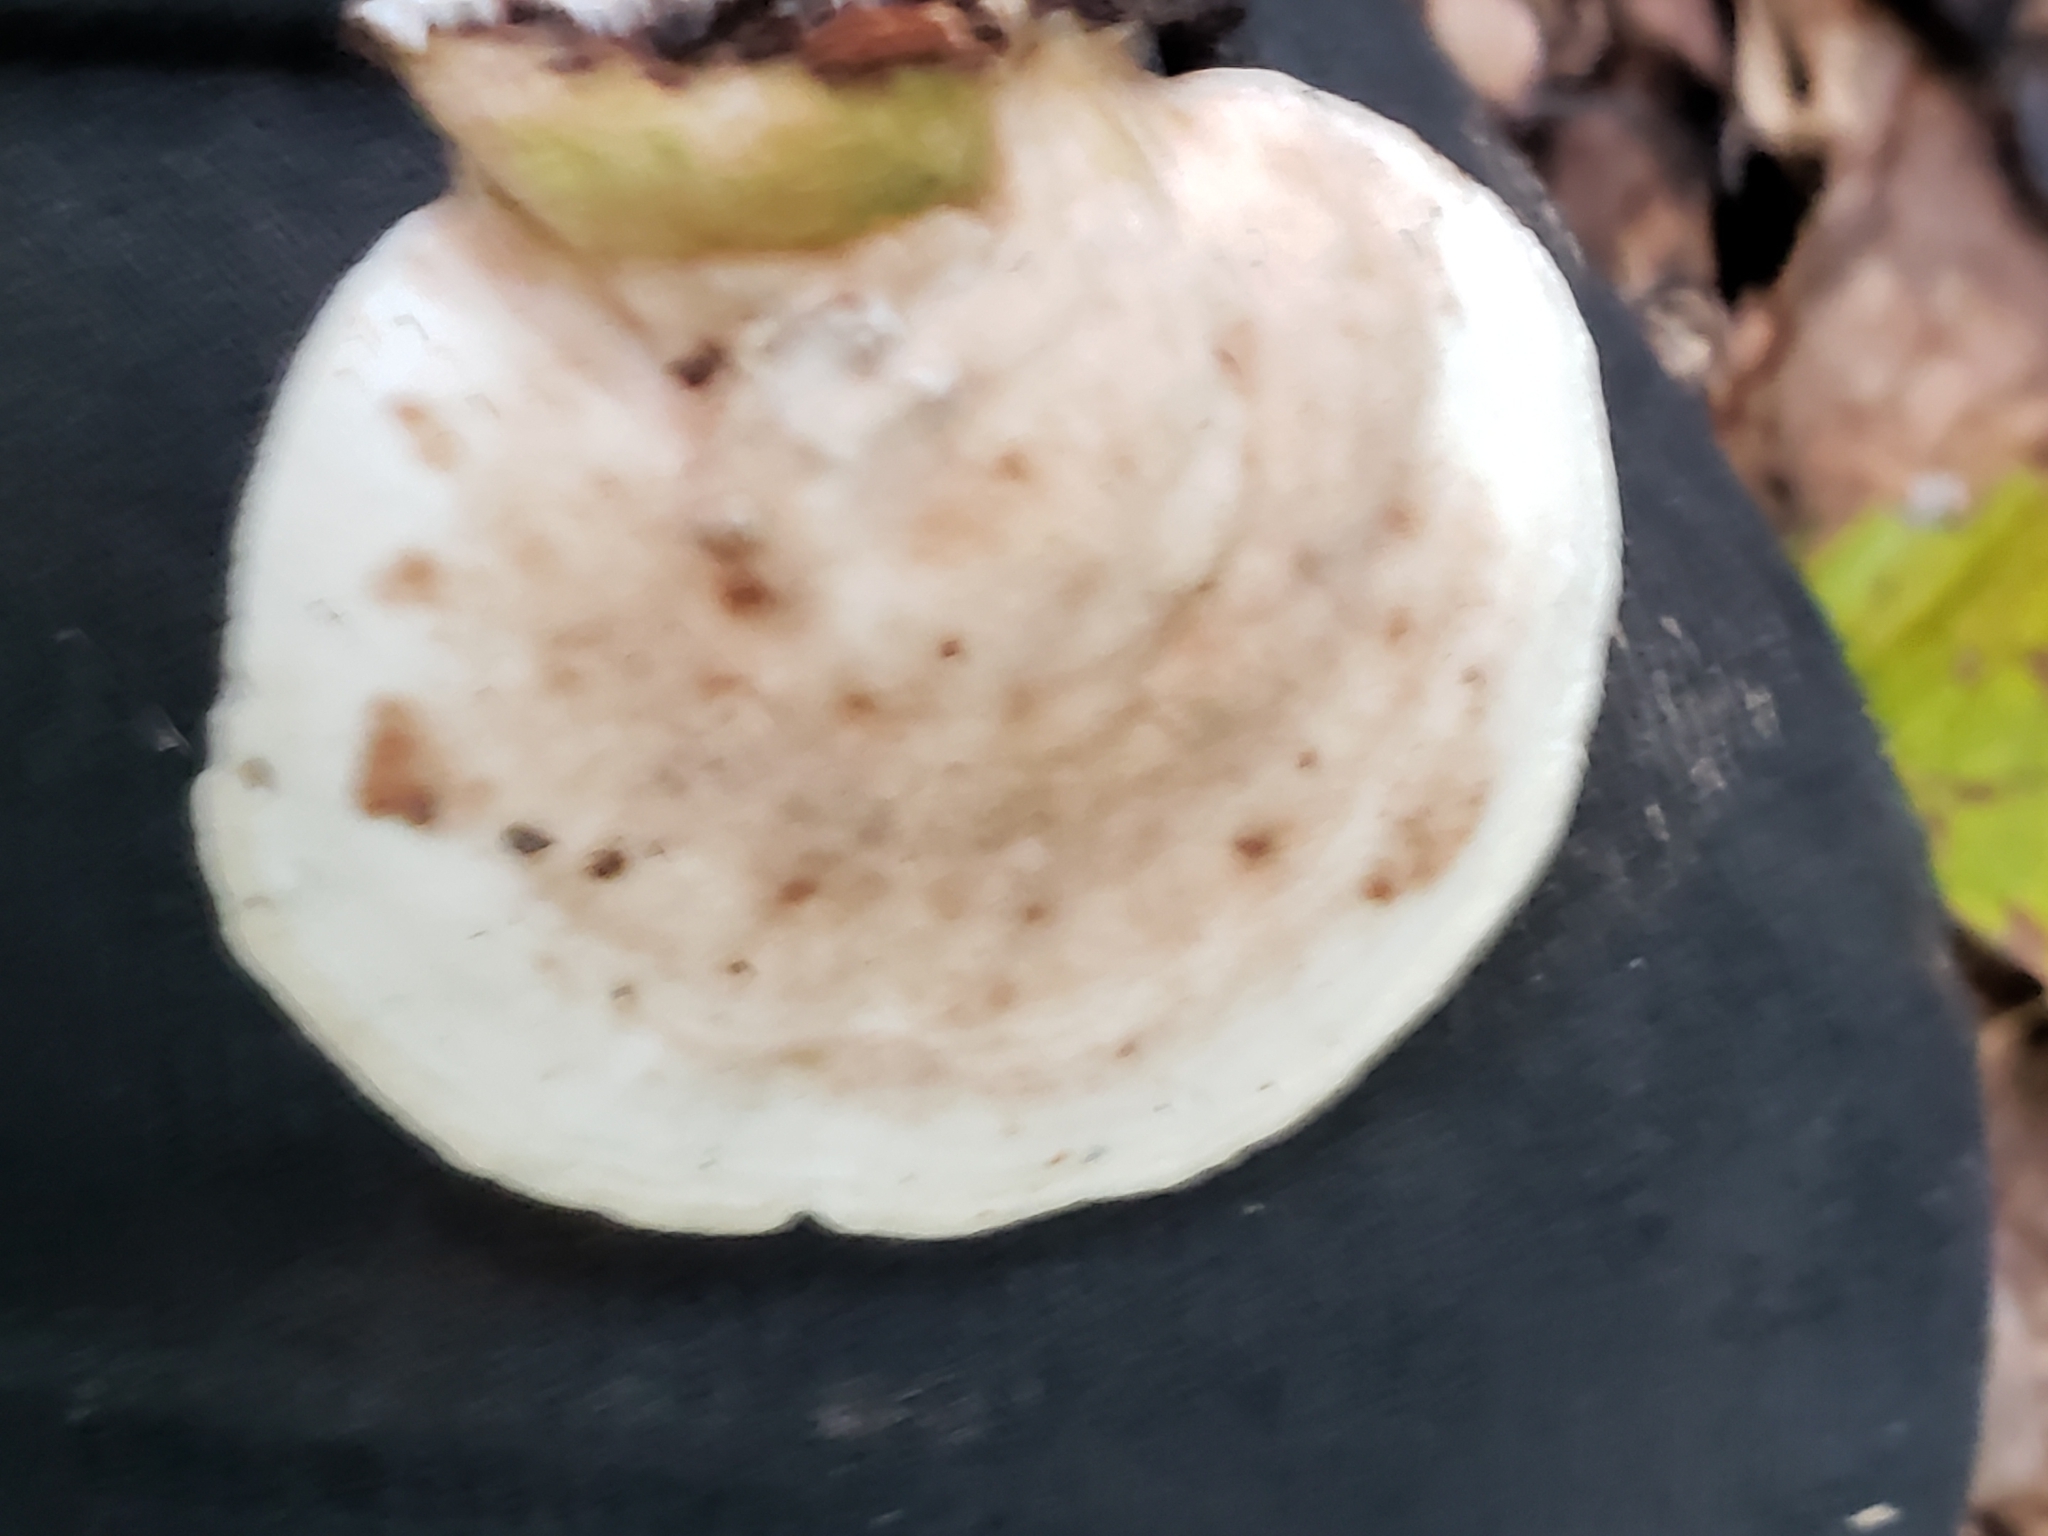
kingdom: Fungi
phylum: Basidiomycota
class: Agaricomycetes
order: Polyporales
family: Polyporaceae
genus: Trametes
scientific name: Trametes gibbosa
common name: Lumpy bracket
